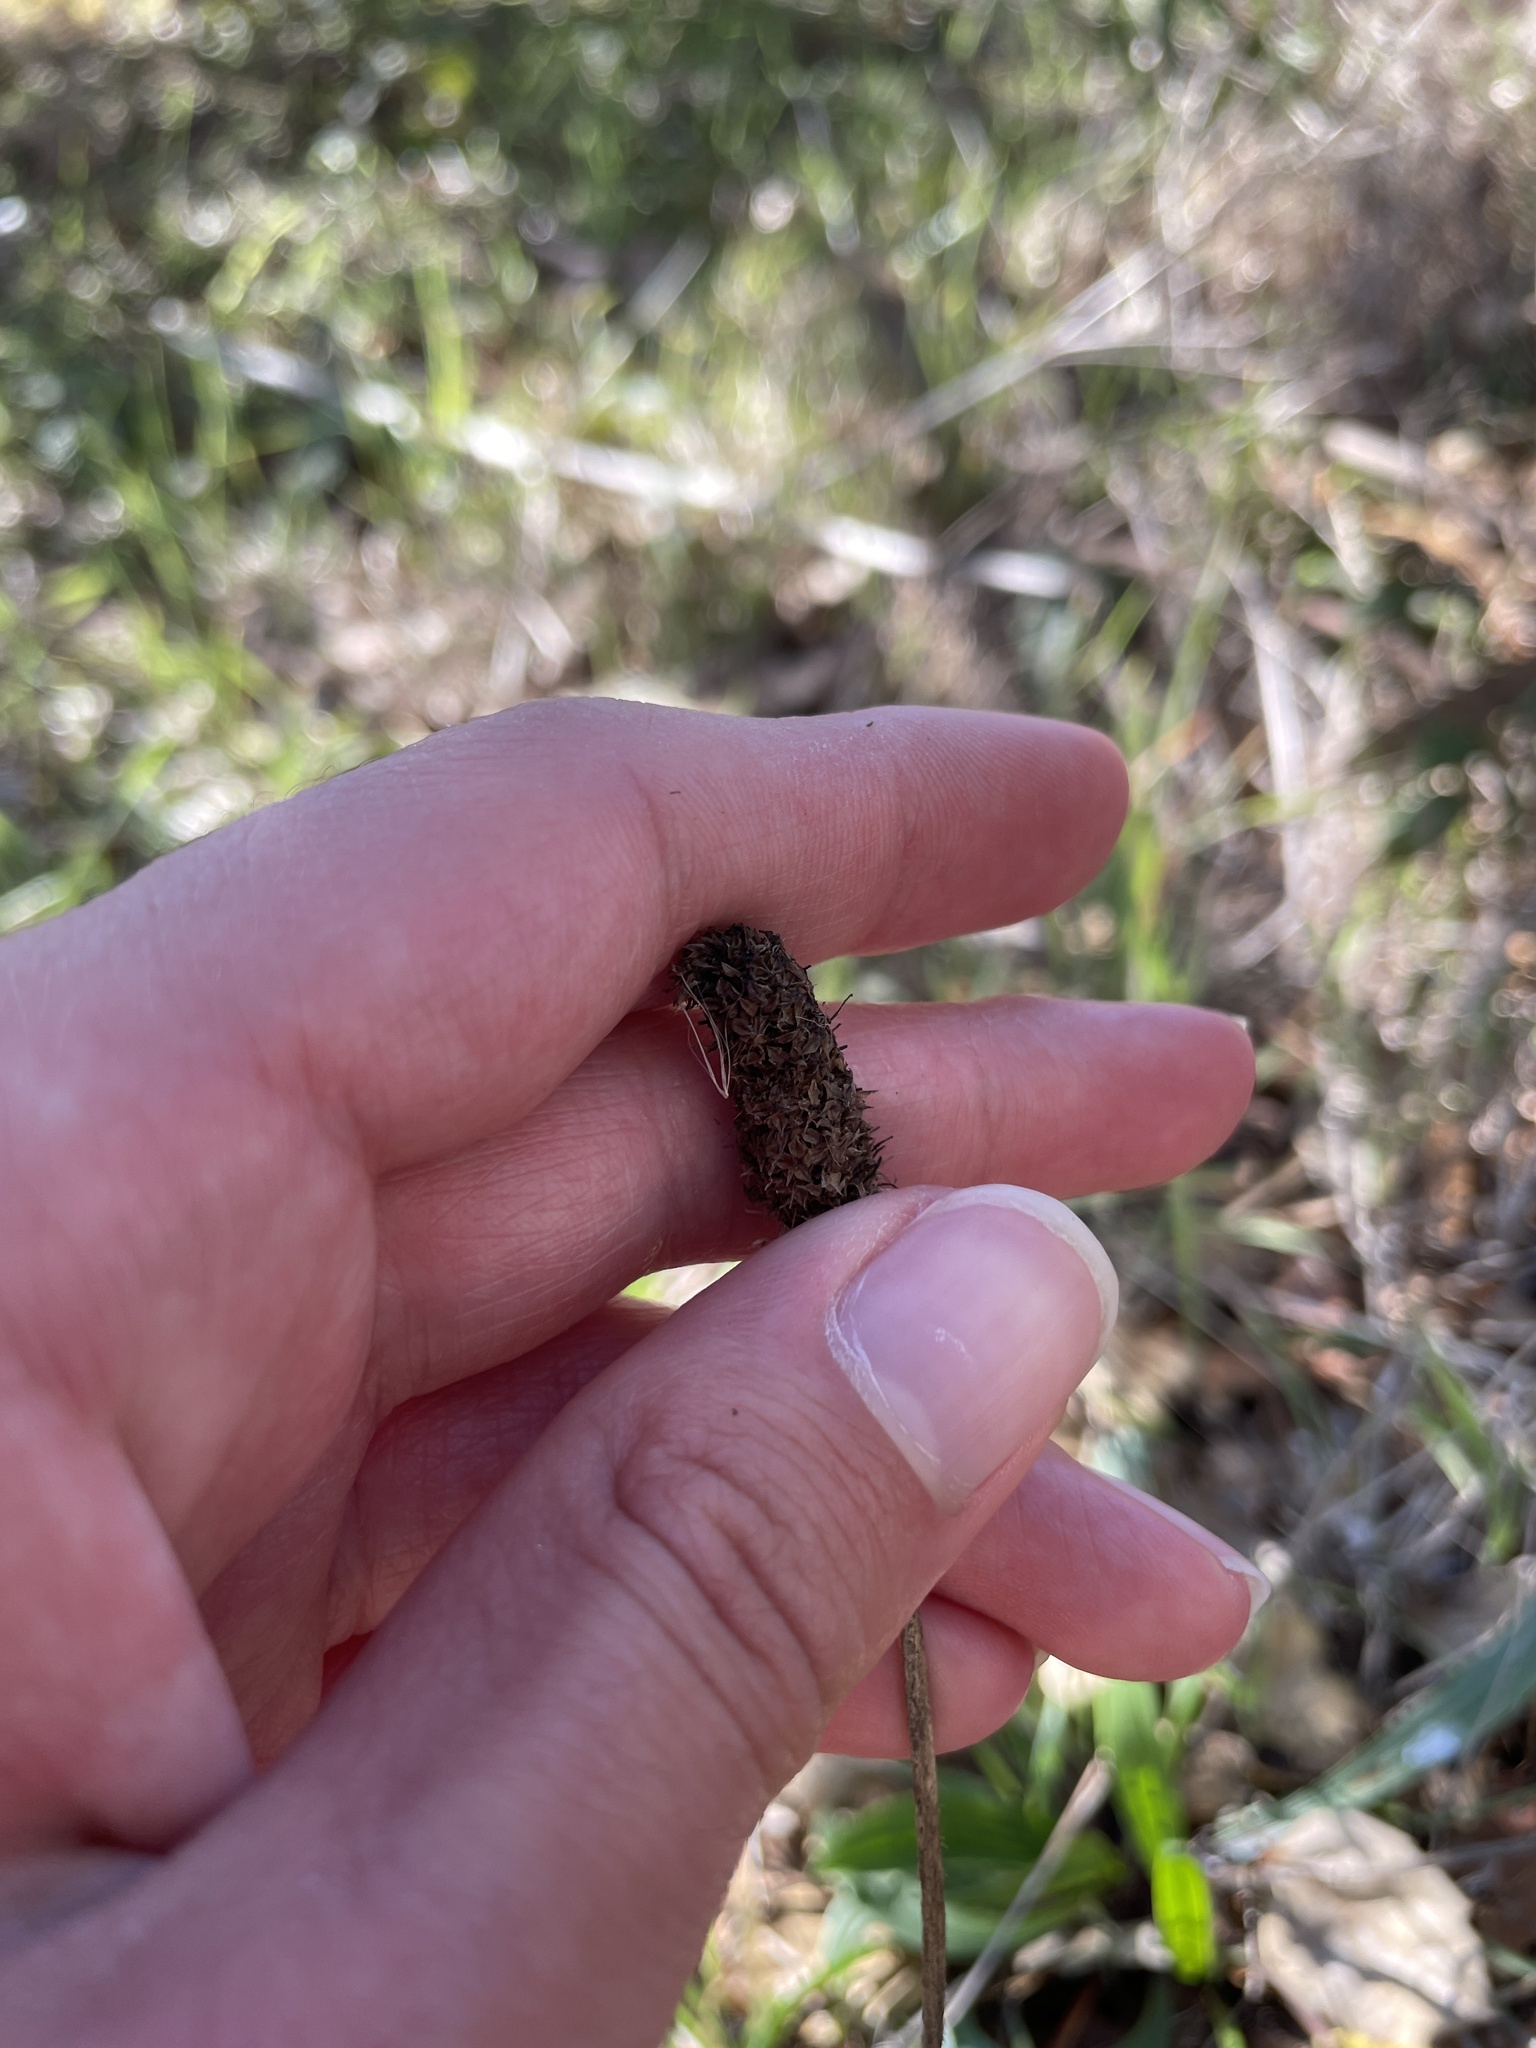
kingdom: Plantae
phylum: Tracheophyta
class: Magnoliopsida
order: Lamiales
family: Plantaginaceae
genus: Plantago
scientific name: Plantago lanceolata
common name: Ribwort plantain
